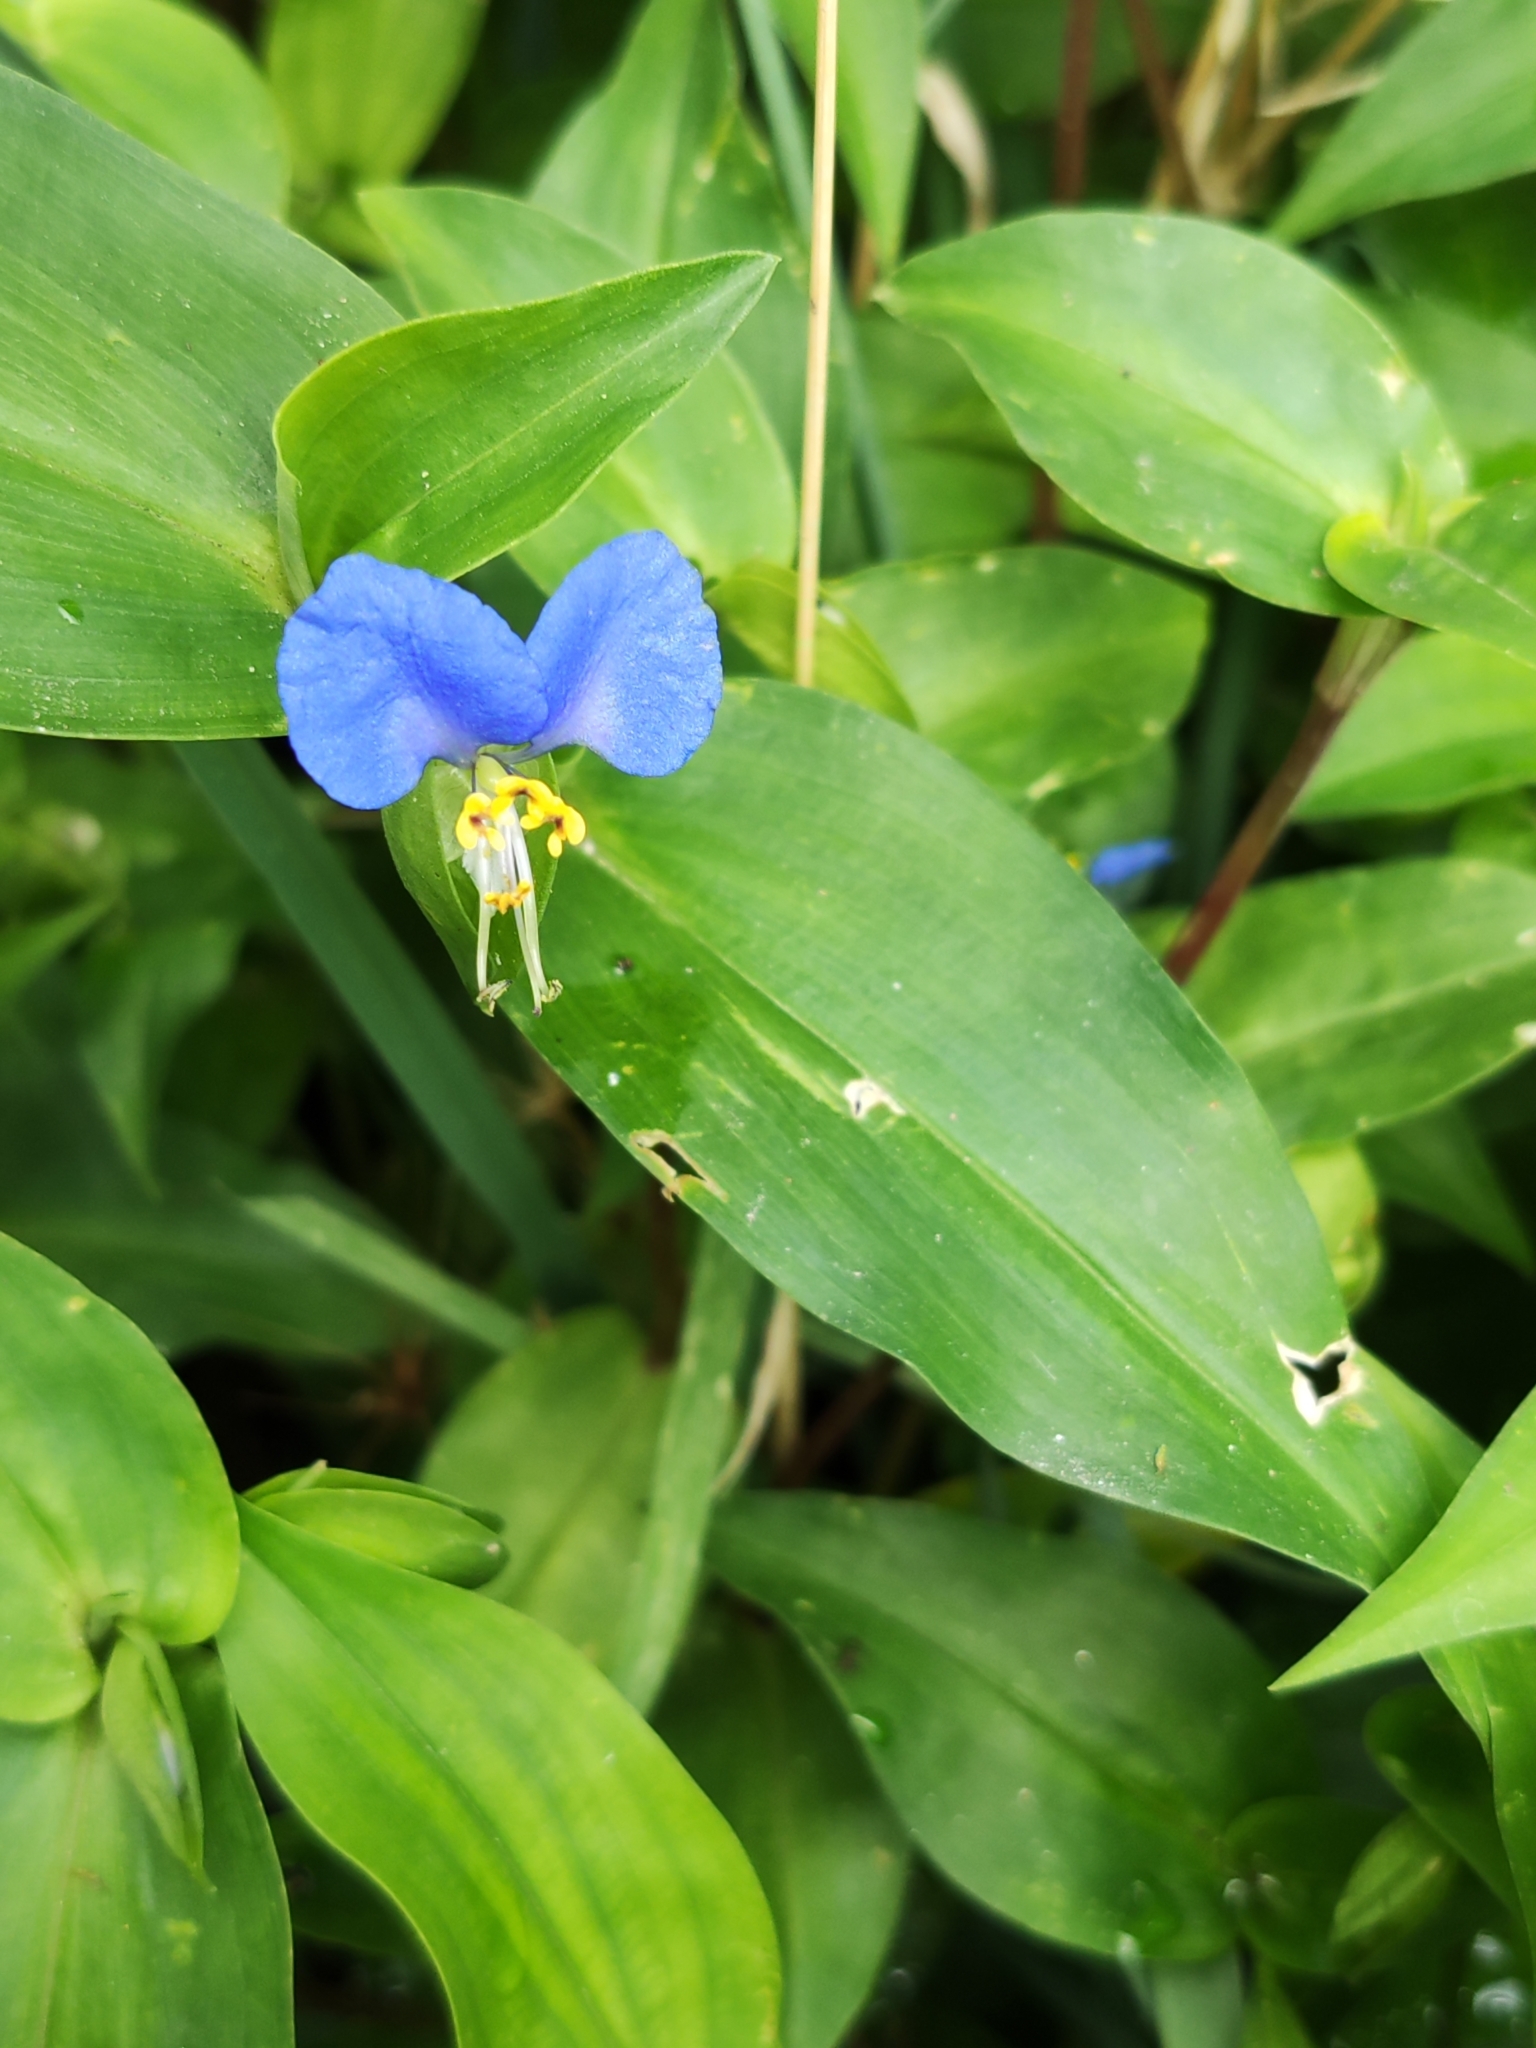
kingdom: Plantae
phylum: Tracheophyta
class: Liliopsida
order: Commelinales
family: Commelinaceae
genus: Commelina
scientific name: Commelina communis
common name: Asiatic dayflower
